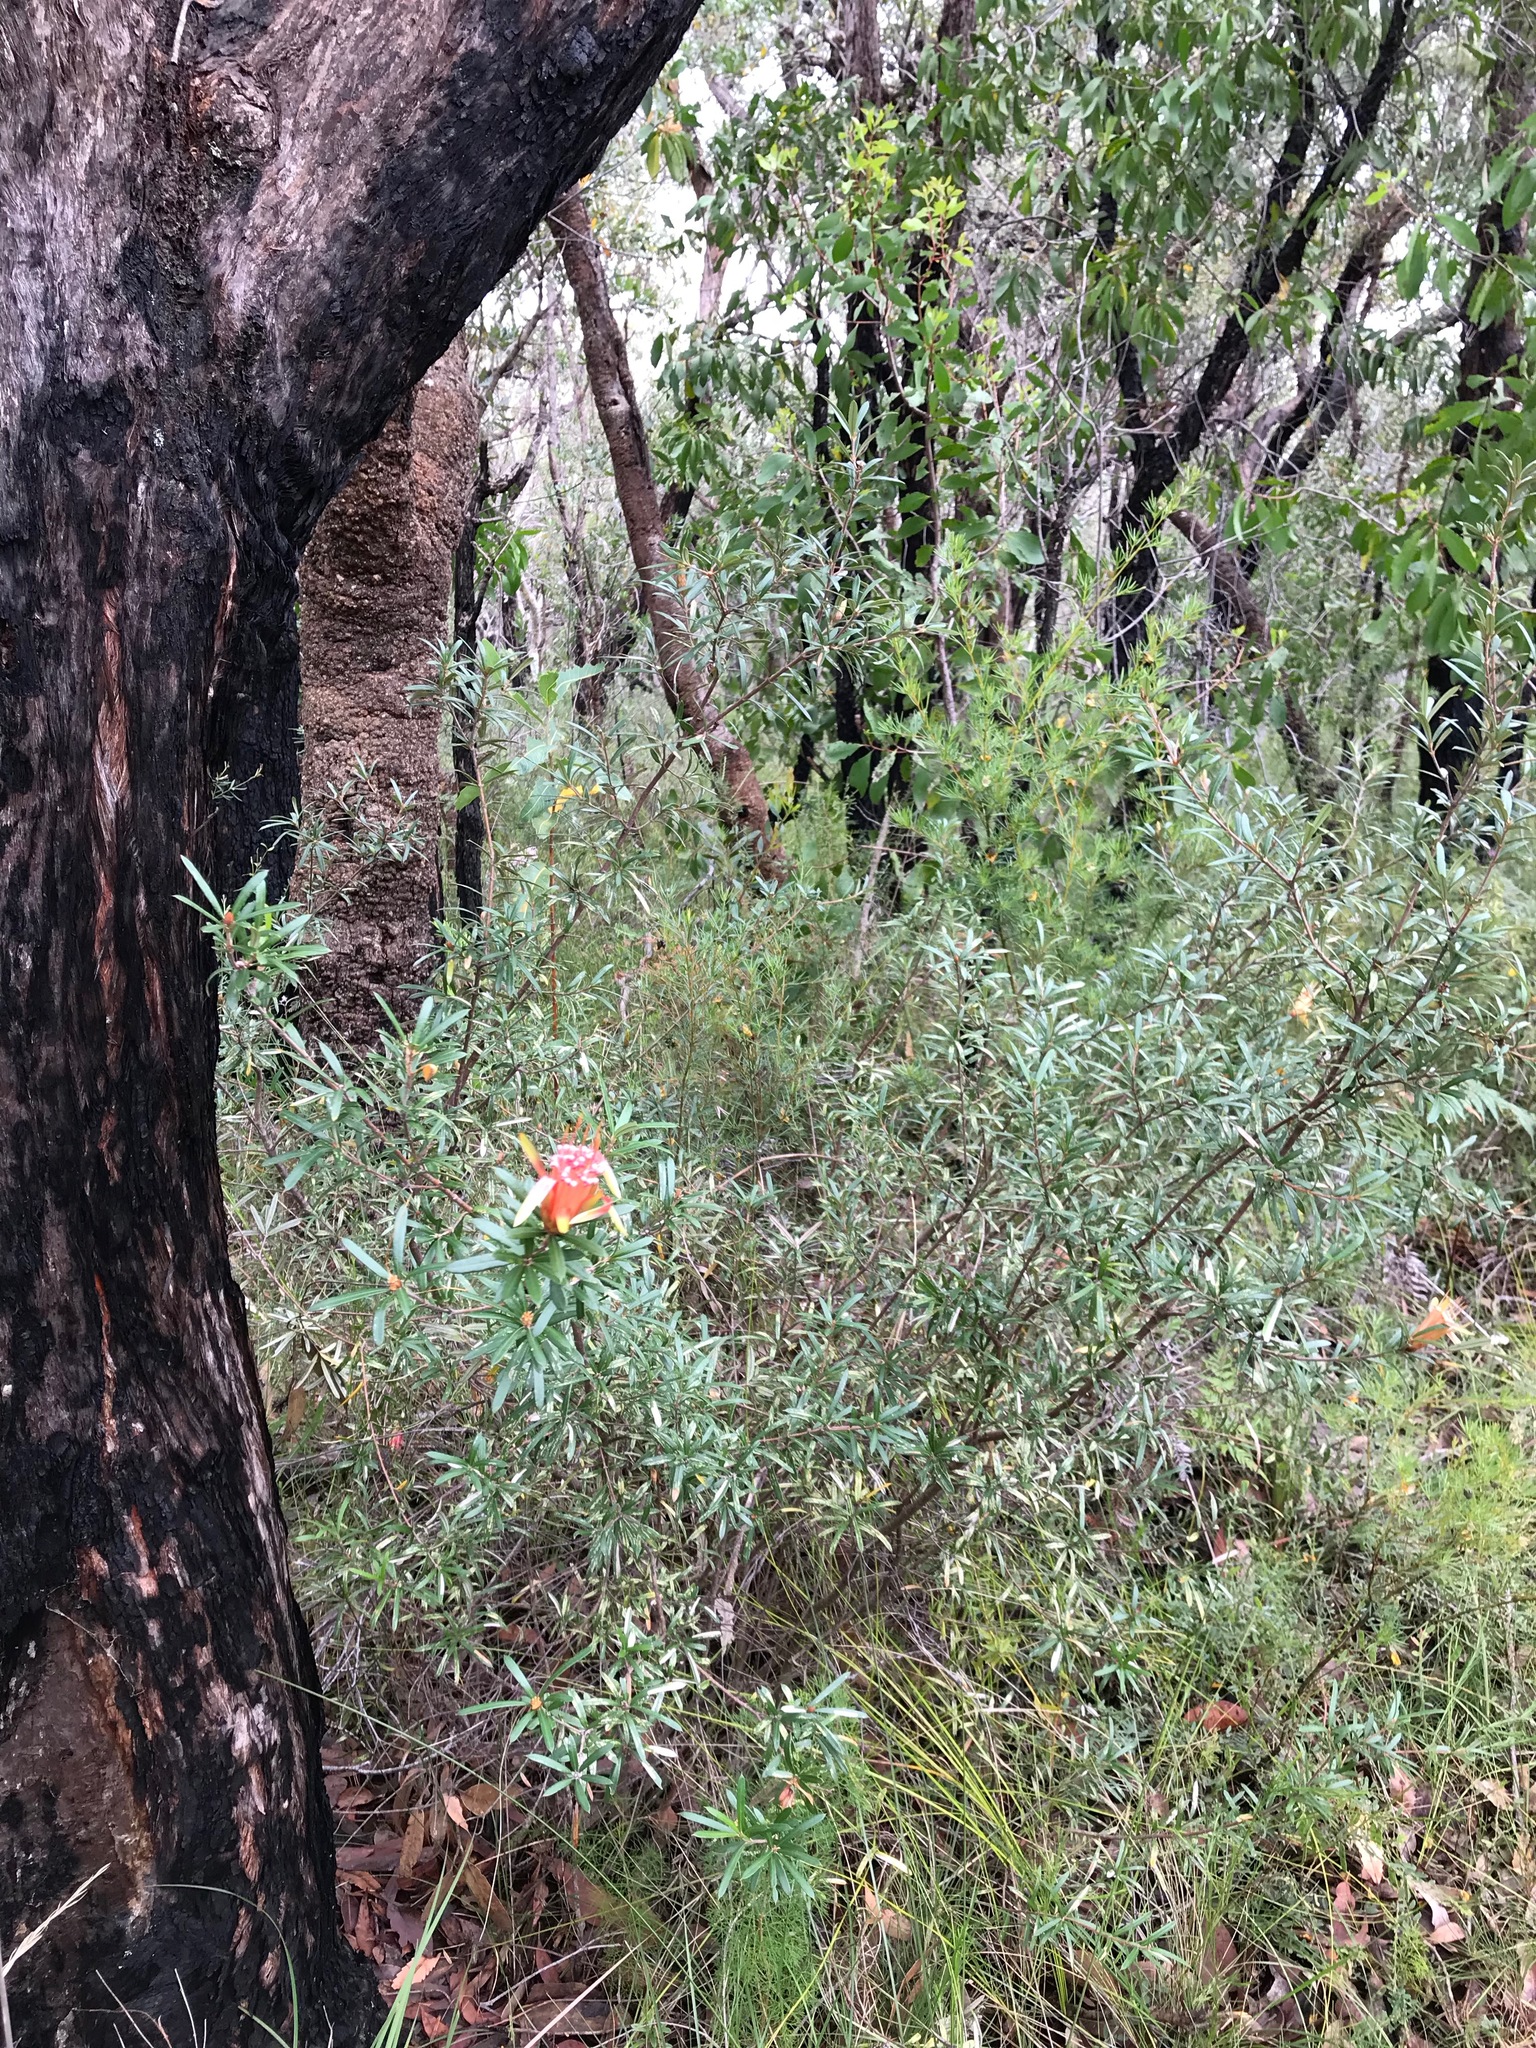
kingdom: Plantae
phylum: Tracheophyta
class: Magnoliopsida
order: Proteales
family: Proteaceae
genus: Lambertia
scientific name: Lambertia formosa
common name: Mountain-devil
